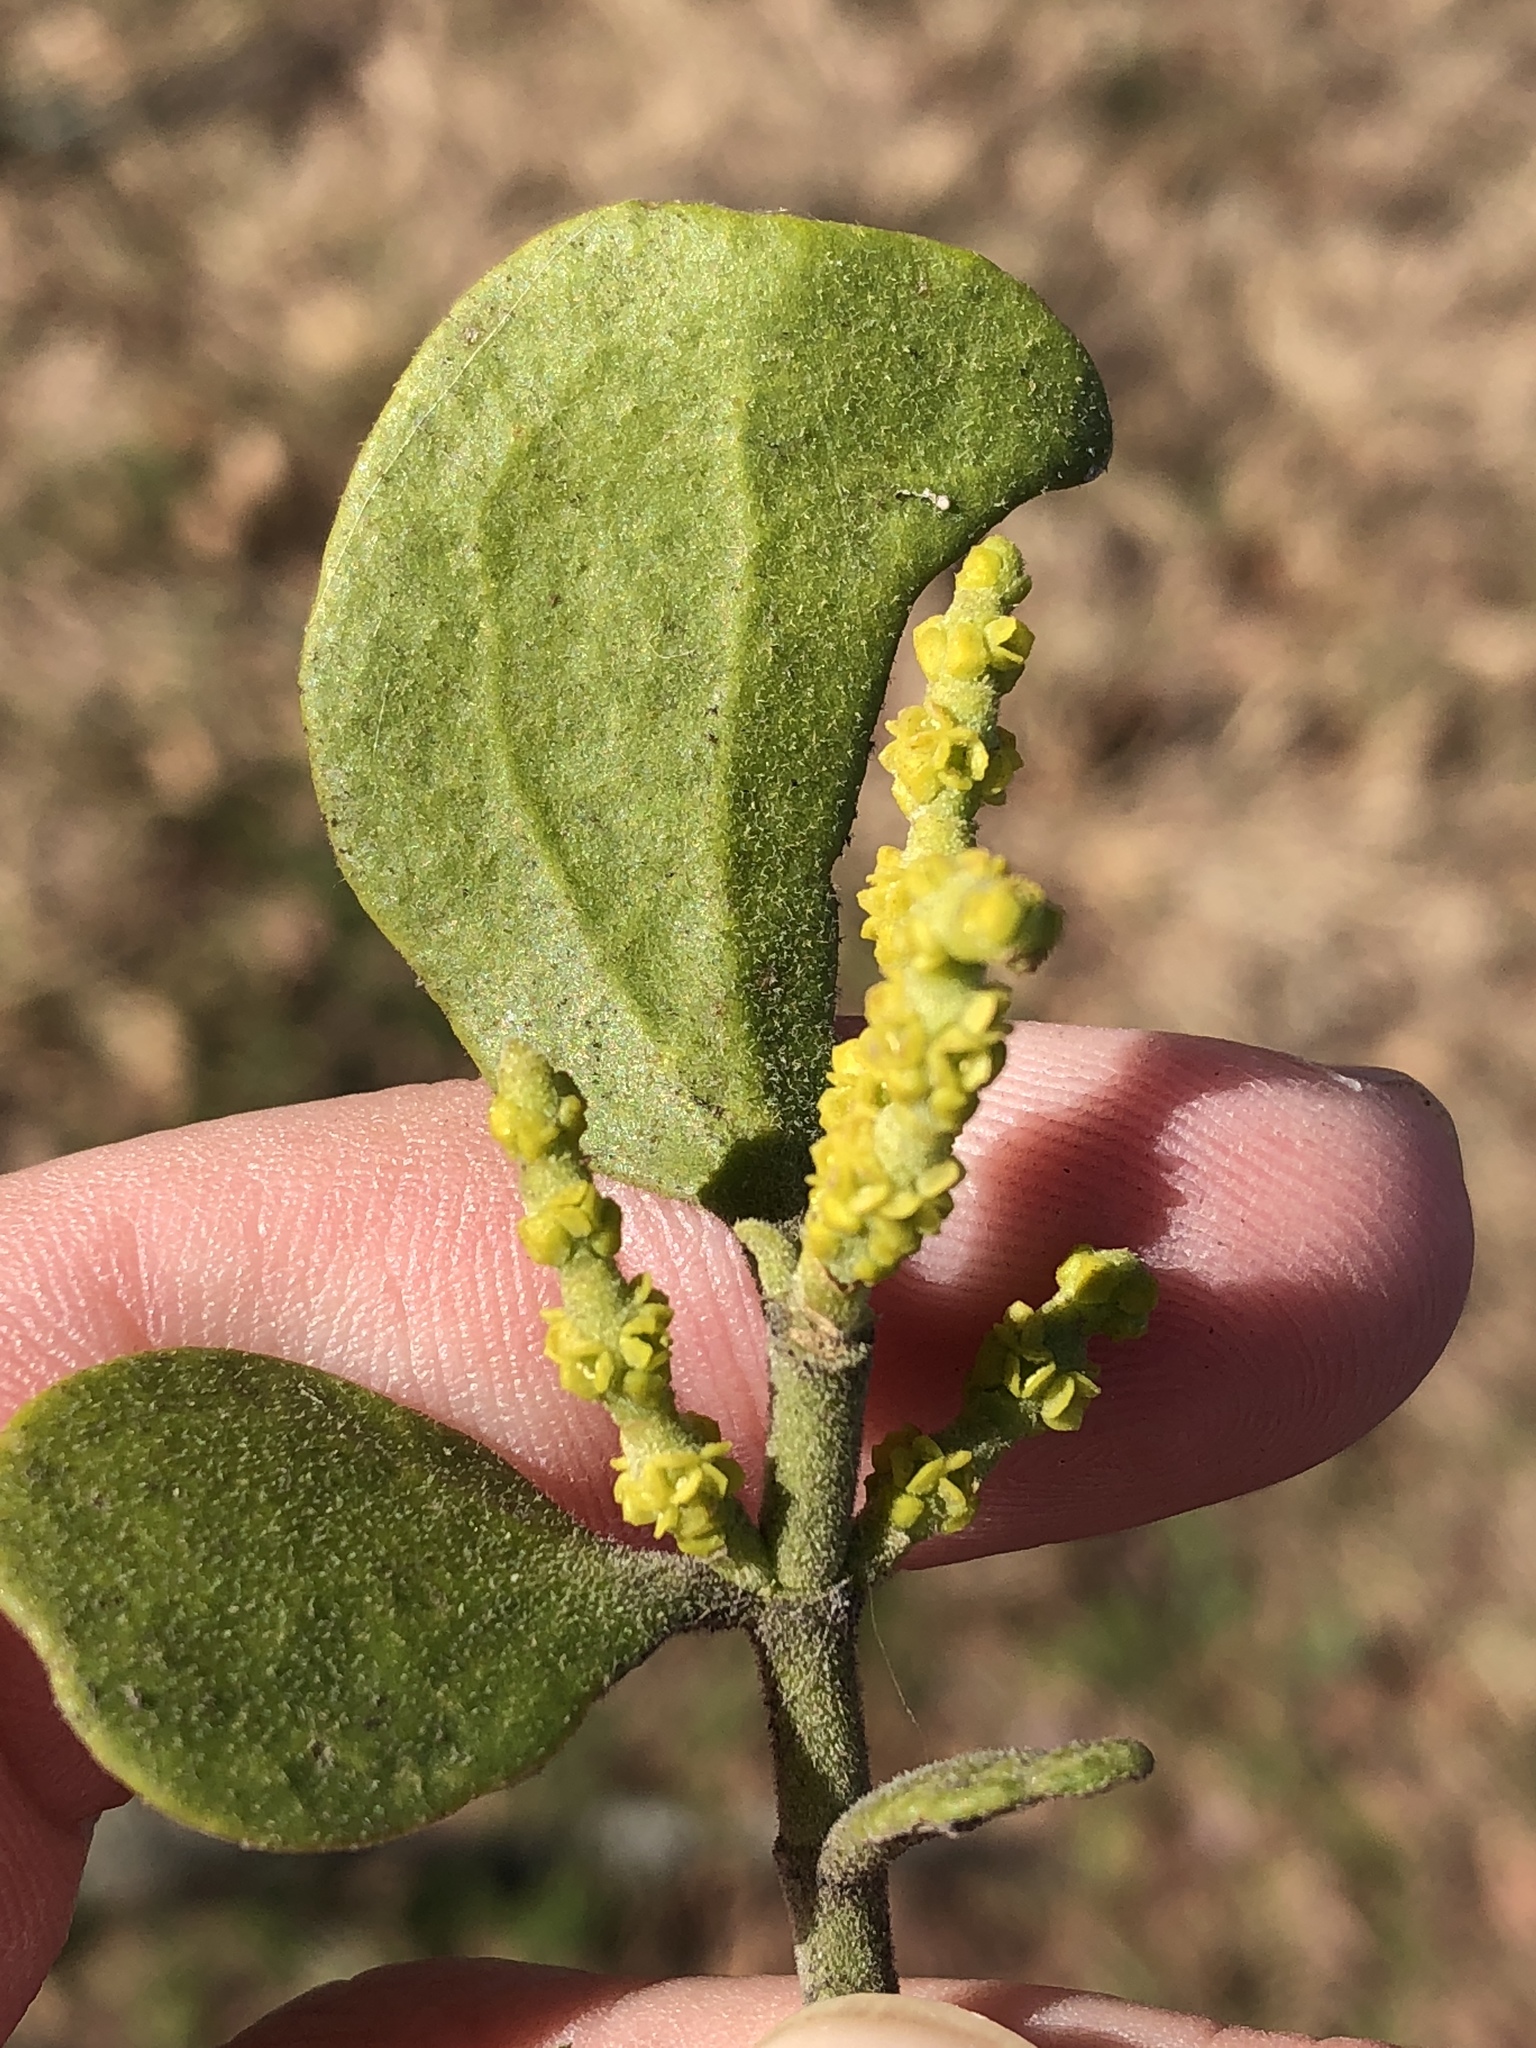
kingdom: Plantae
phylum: Tracheophyta
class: Magnoliopsida
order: Santalales
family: Viscaceae
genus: Phoradendron
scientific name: Phoradendron leucarpum
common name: Pacific mistletoe
